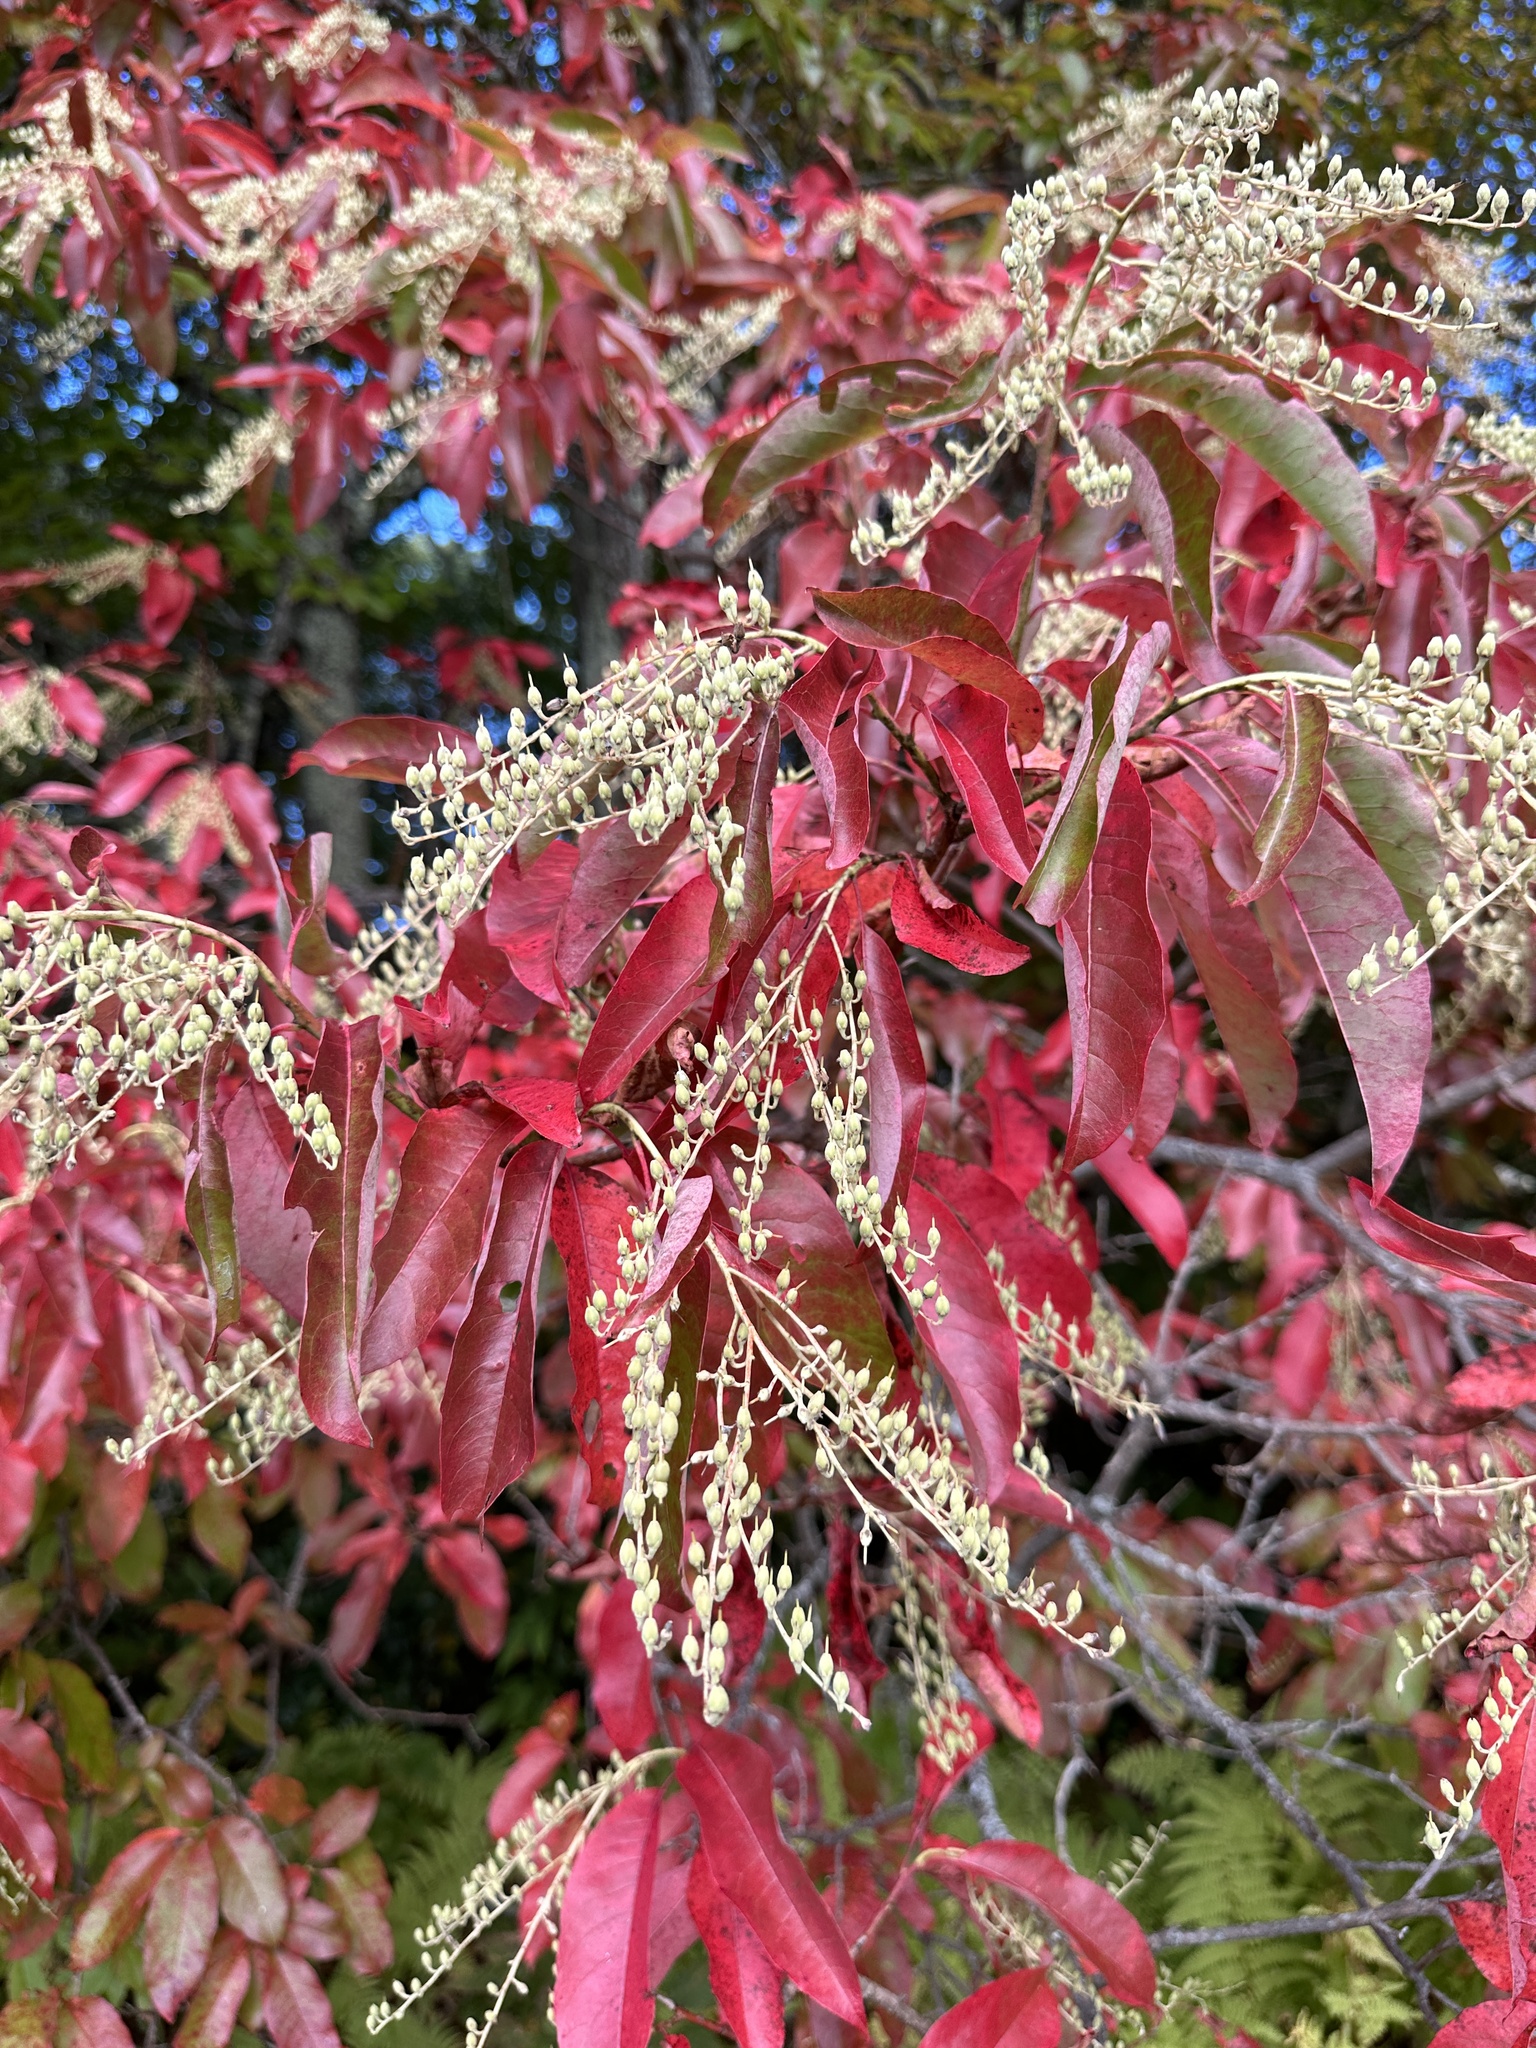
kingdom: Plantae
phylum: Tracheophyta
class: Magnoliopsida
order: Ericales
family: Ericaceae
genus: Oxydendrum
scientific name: Oxydendrum arboreum
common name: Sourwood
